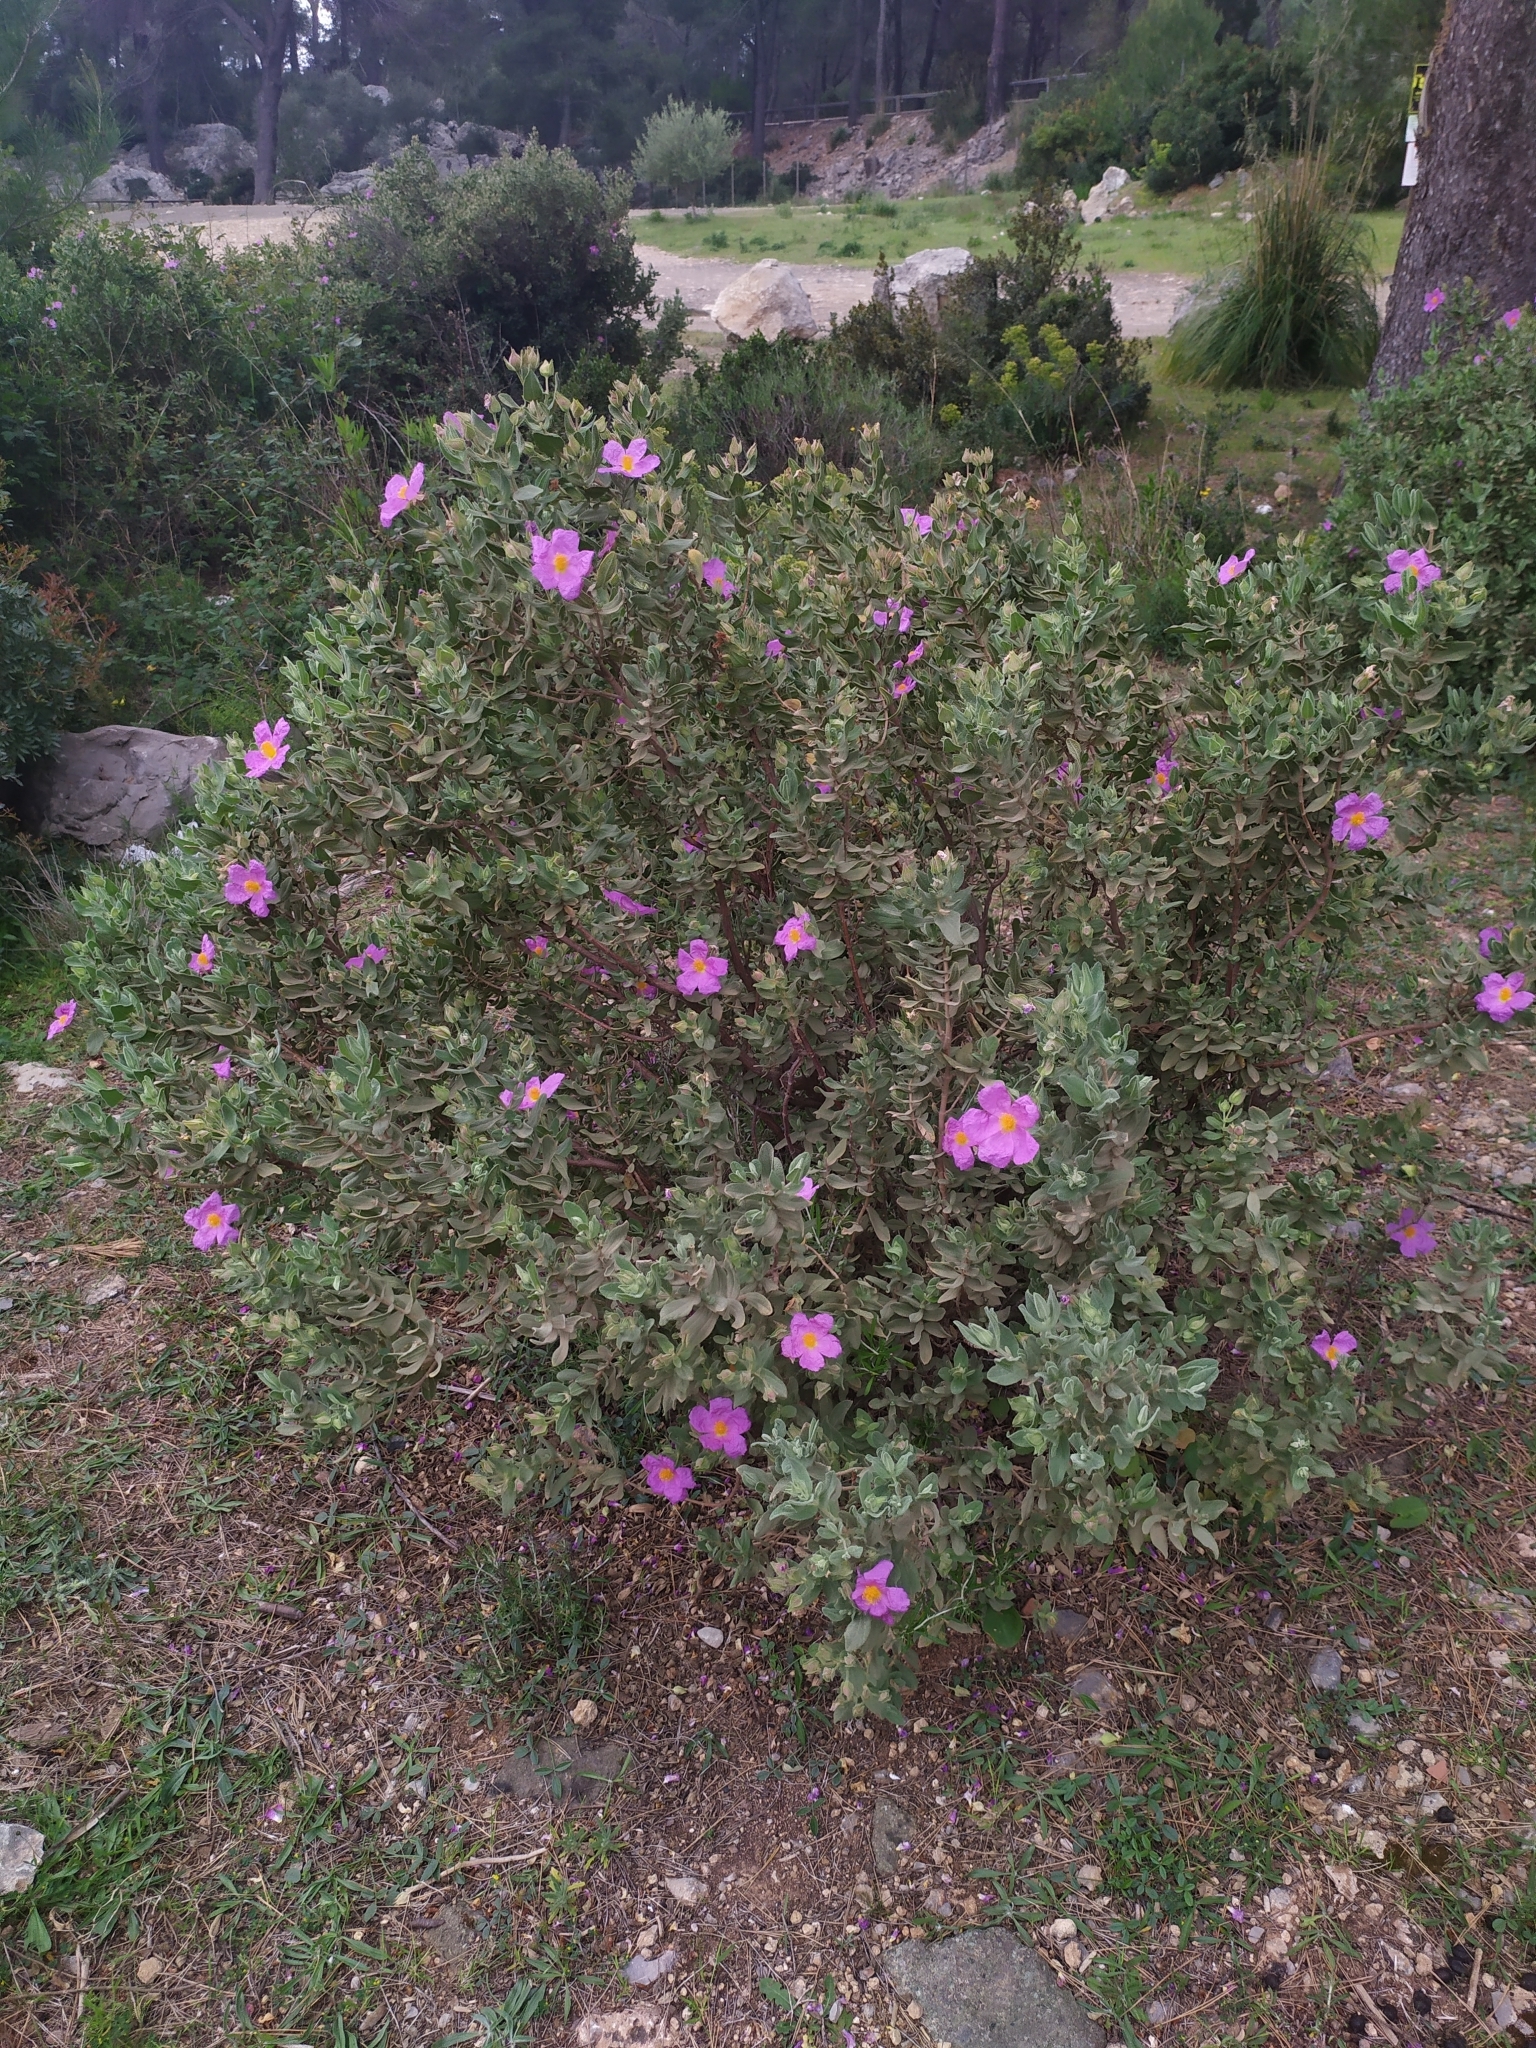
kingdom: Plantae
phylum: Tracheophyta
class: Magnoliopsida
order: Malvales
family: Cistaceae
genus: Cistus
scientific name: Cistus albidus
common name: White-leaf rock-rose
